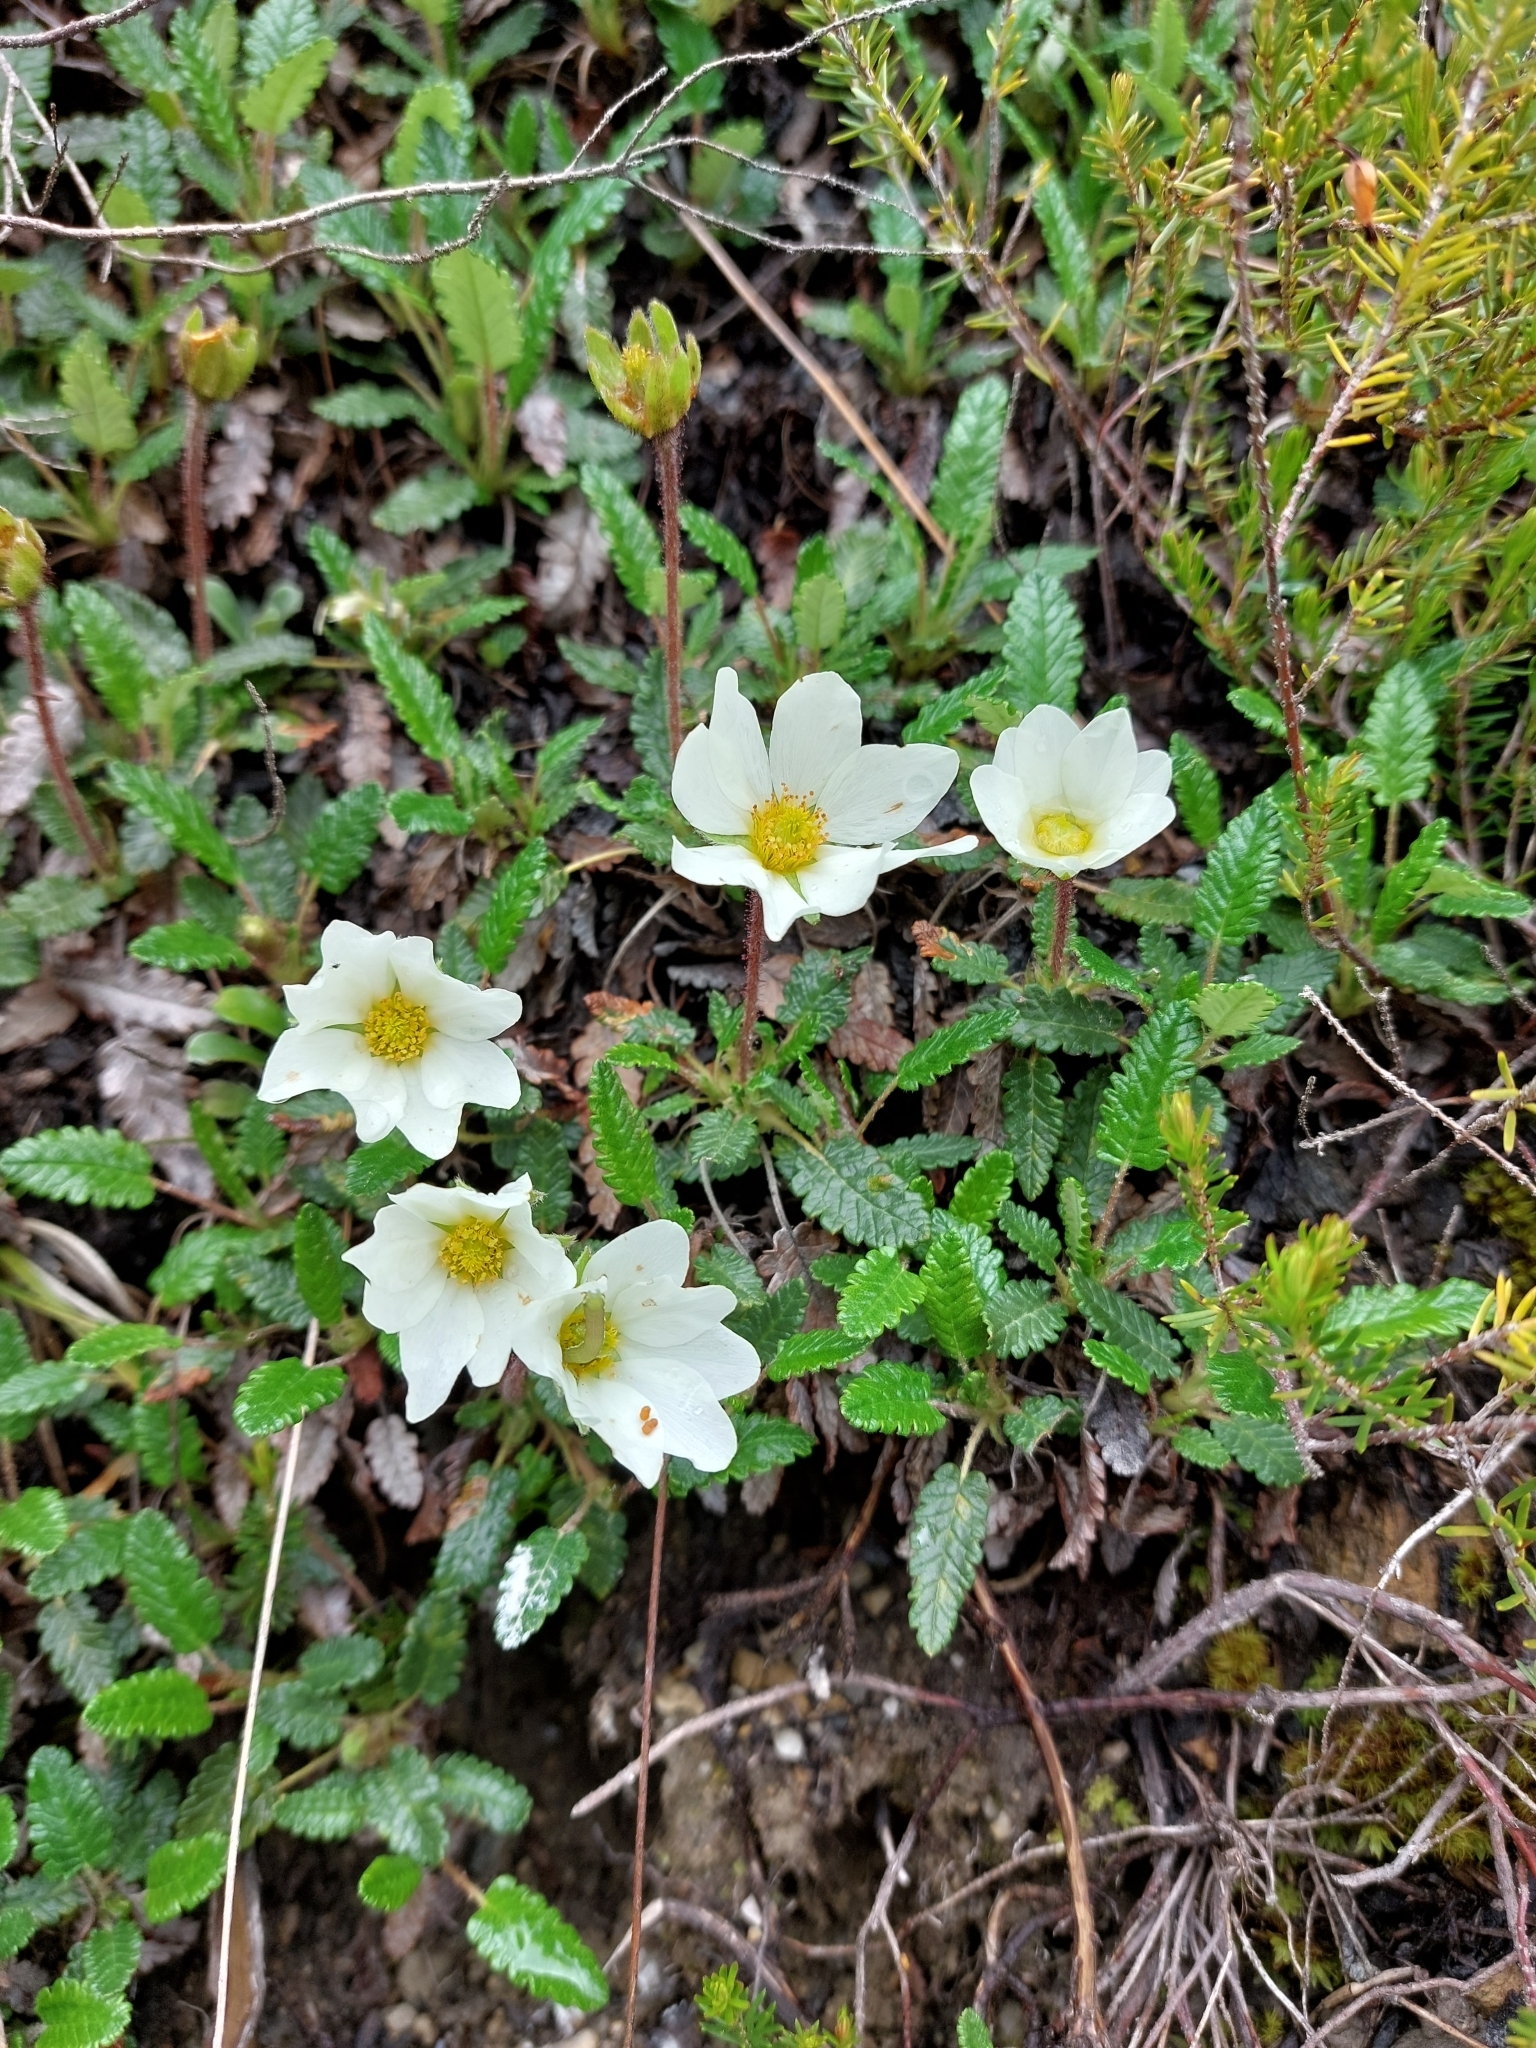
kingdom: Plantae
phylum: Tracheophyta
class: Magnoliopsida
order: Rosales
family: Rosaceae
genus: Dryas
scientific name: Dryas octopetala
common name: Eight-petal mountain-avens
